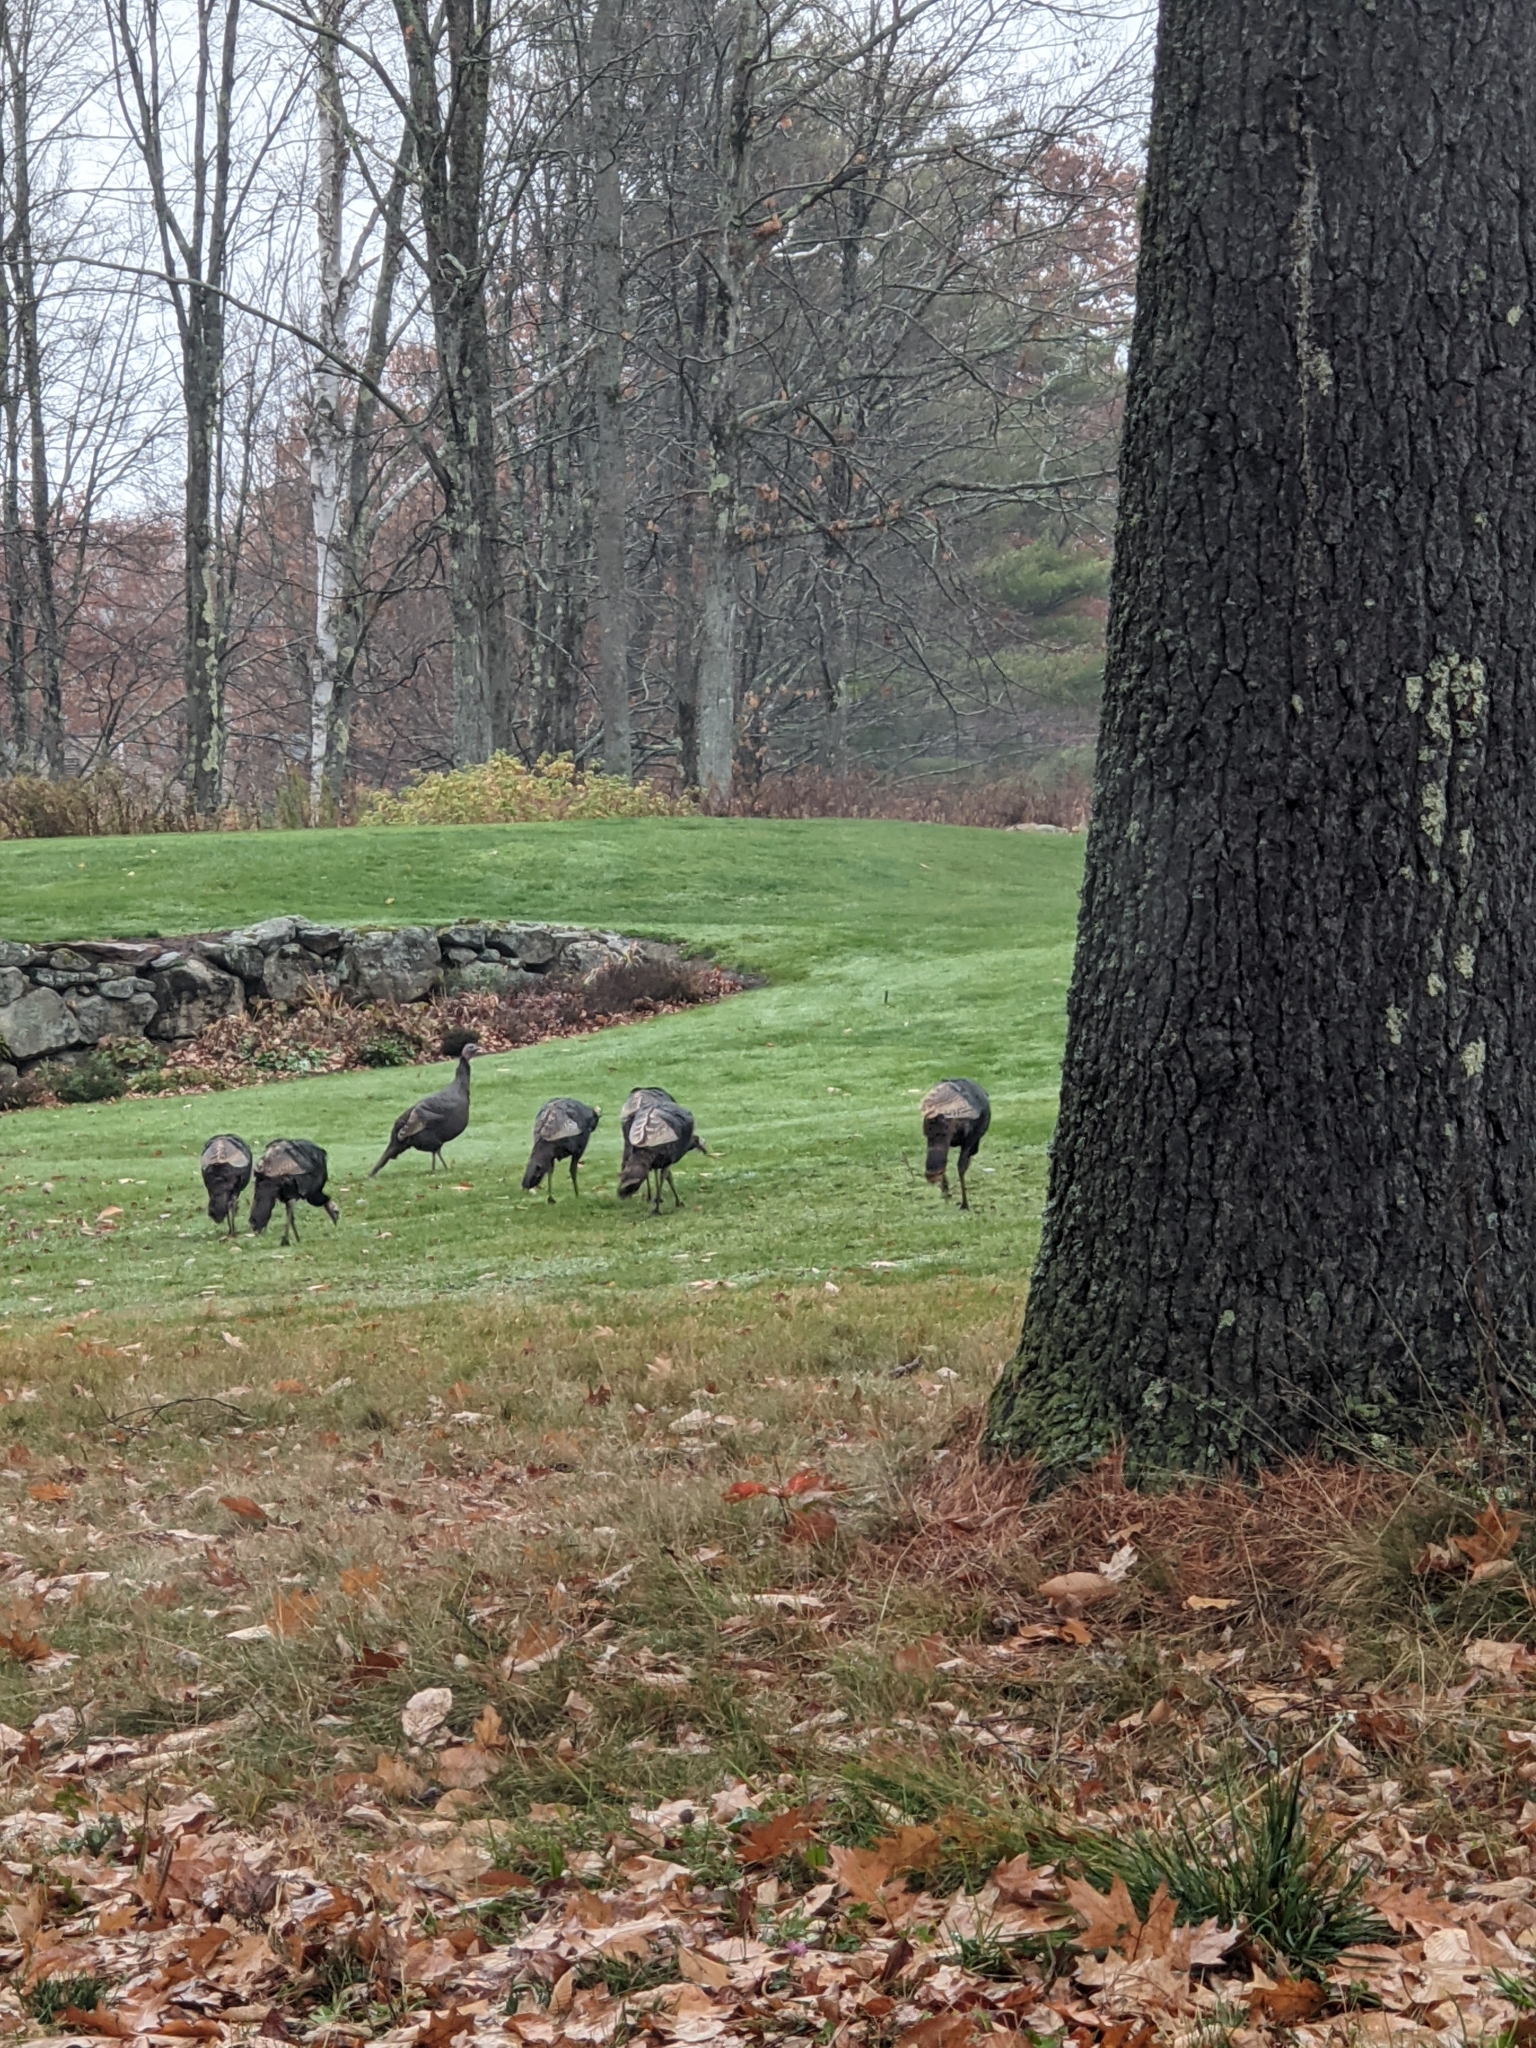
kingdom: Animalia
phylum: Chordata
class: Aves
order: Galliformes
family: Phasianidae
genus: Meleagris
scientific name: Meleagris gallopavo
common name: Wild turkey
